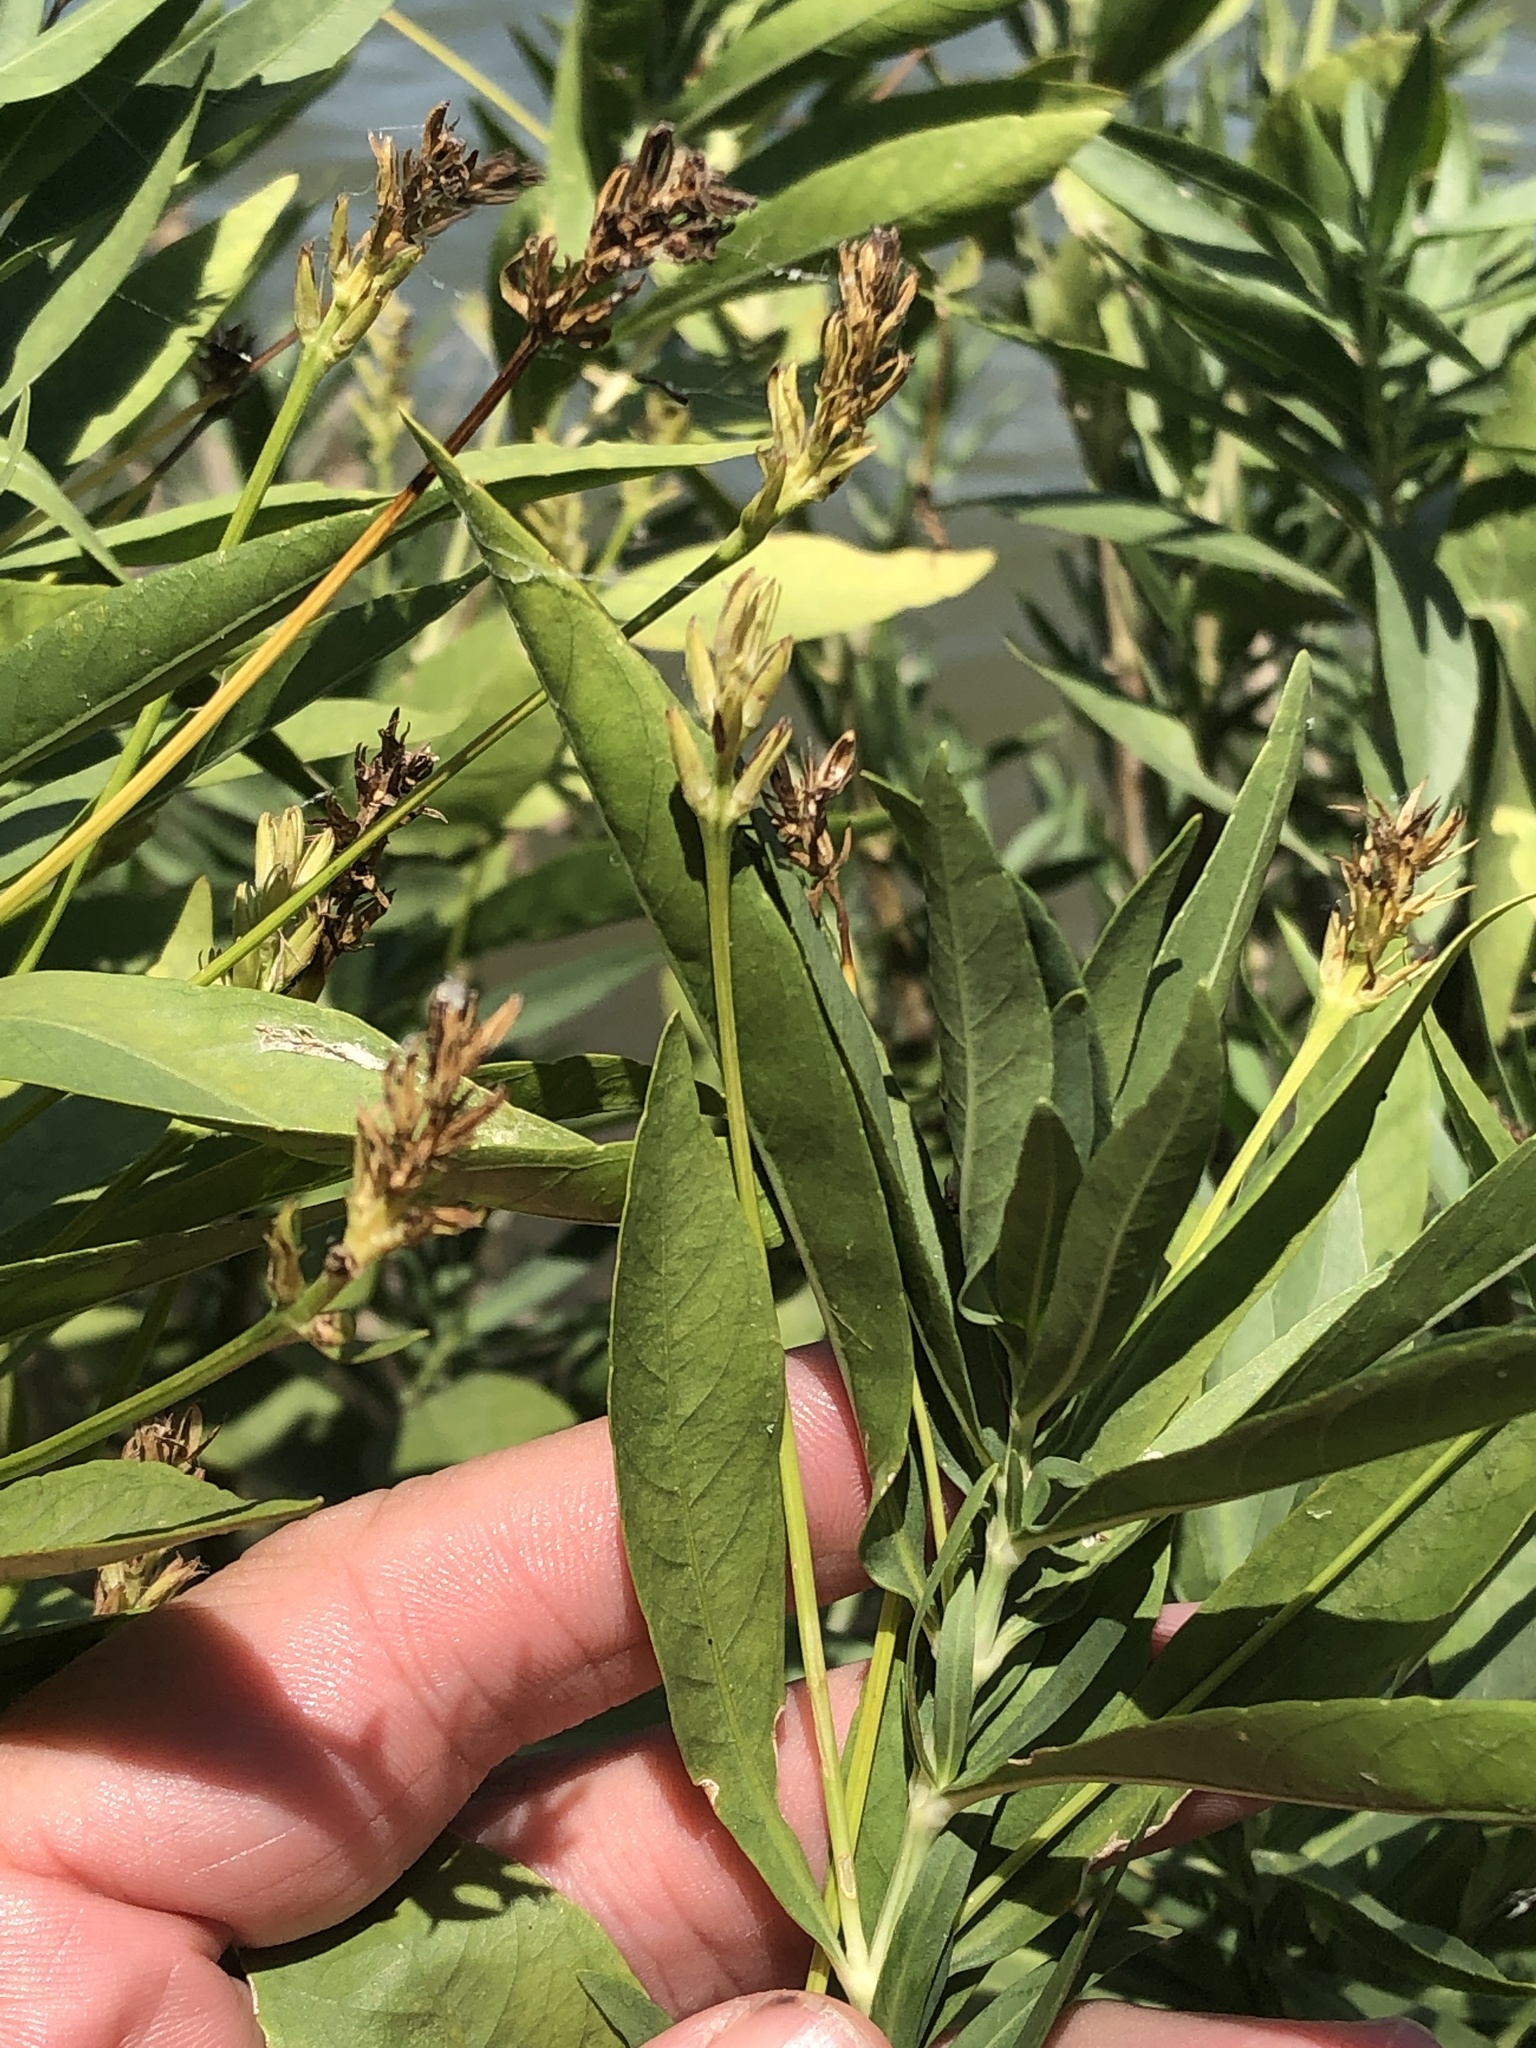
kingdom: Plantae
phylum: Tracheophyta
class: Magnoliopsida
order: Lamiales
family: Acanthaceae
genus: Dianthera
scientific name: Dianthera americana
